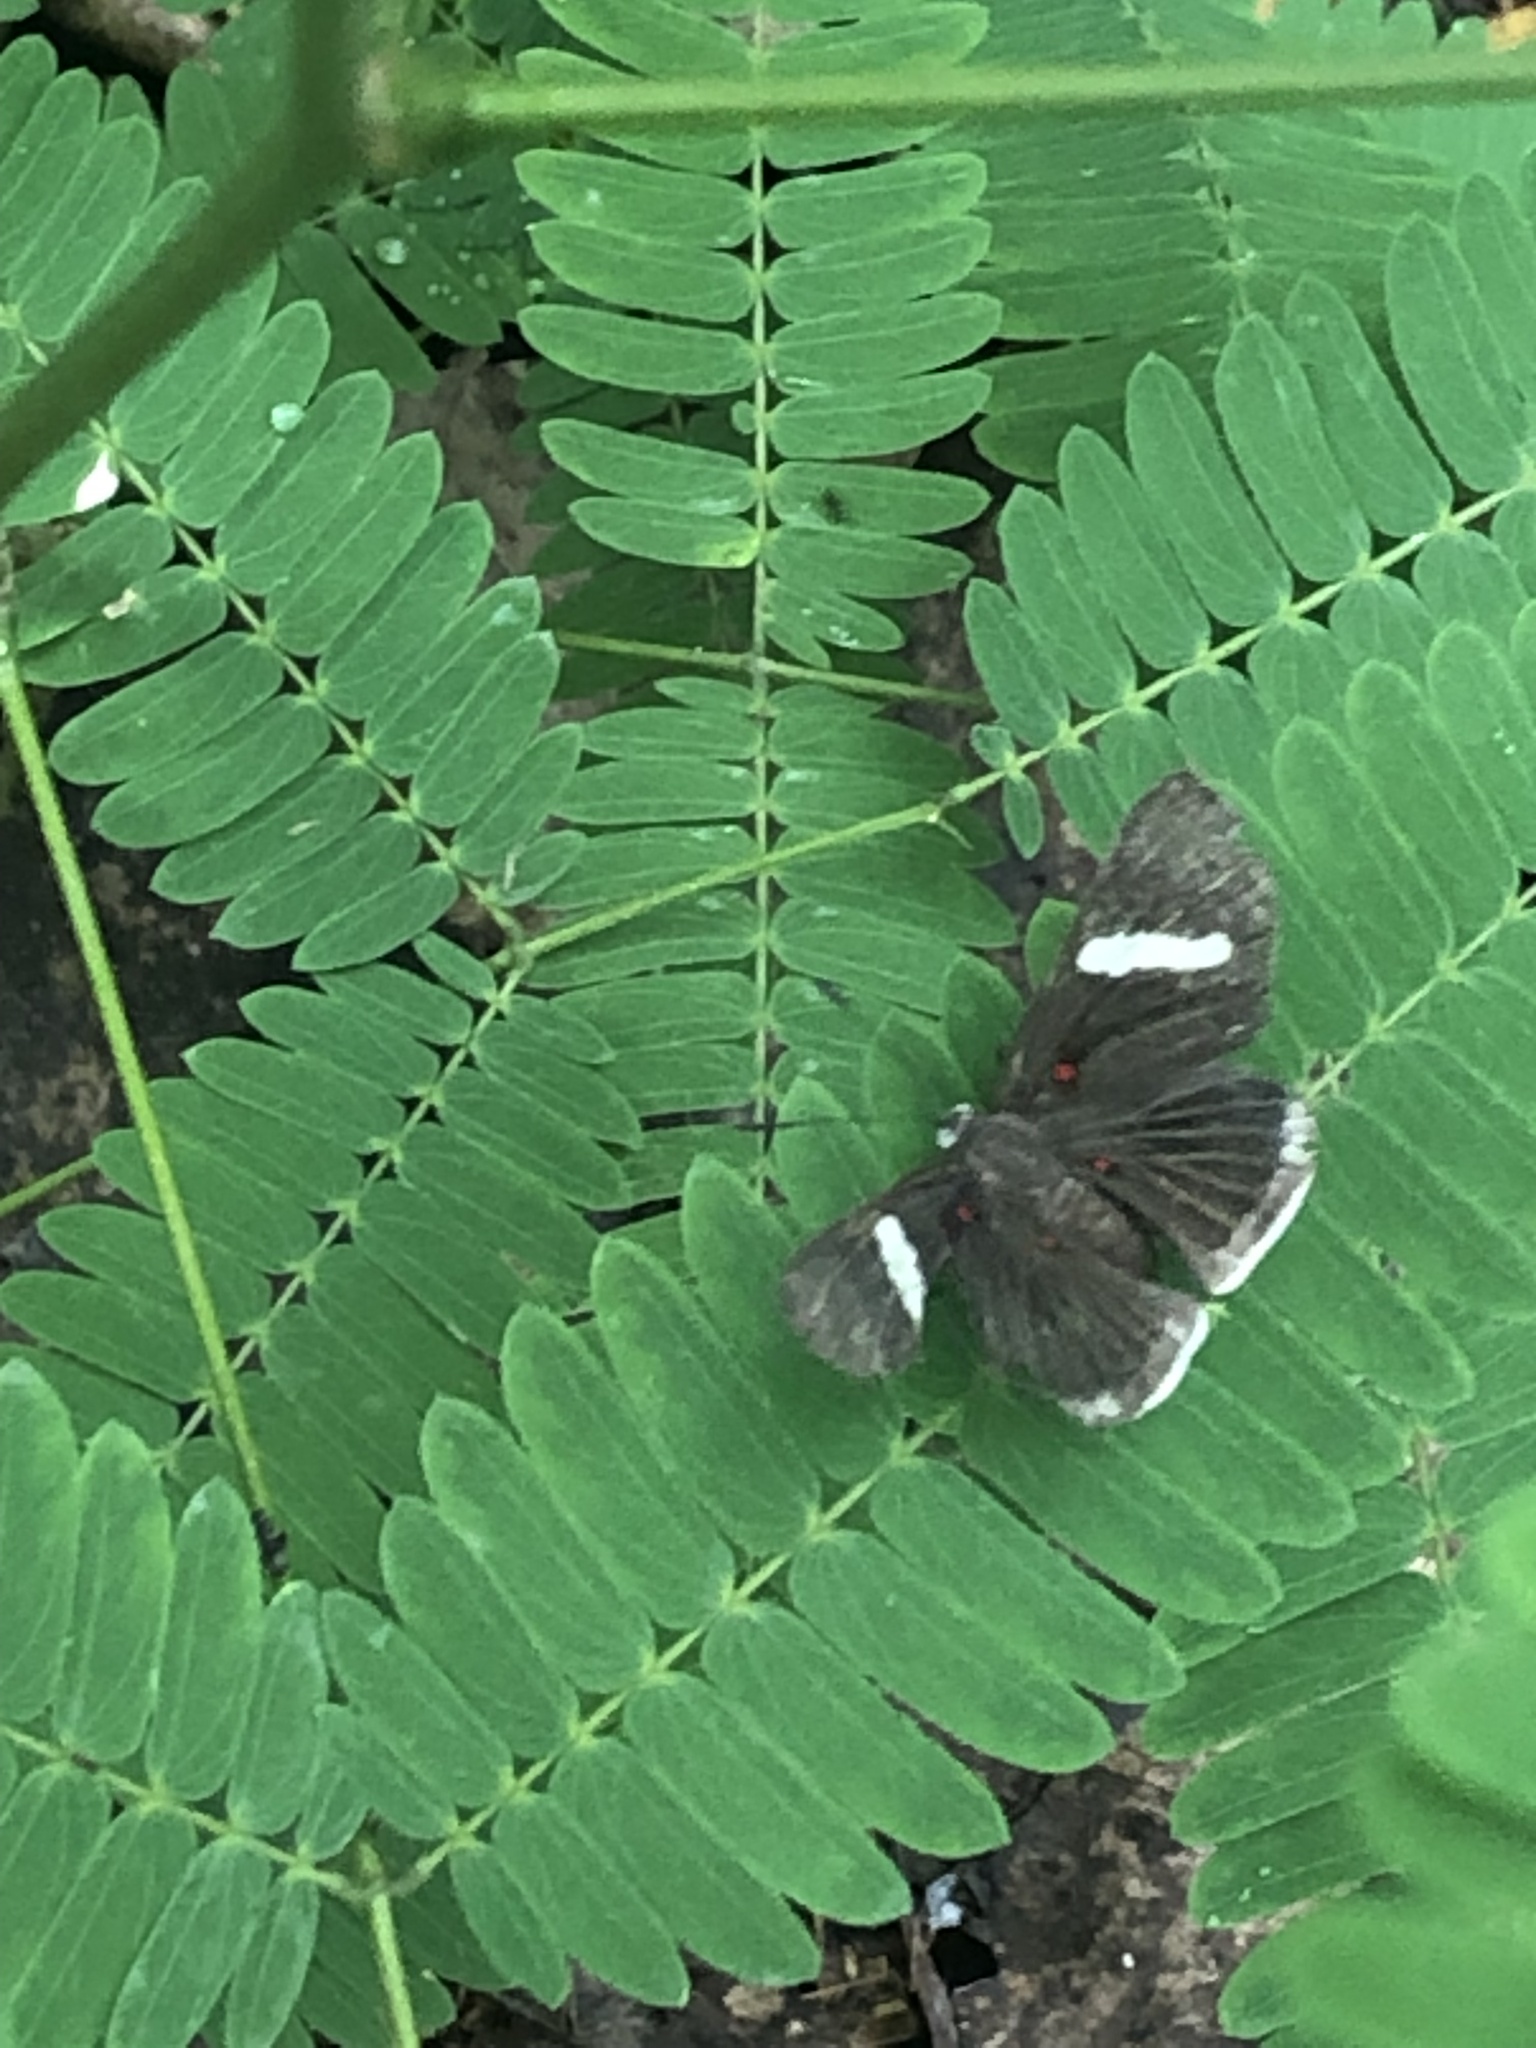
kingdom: Animalia
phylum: Arthropoda
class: Insecta
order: Lepidoptera
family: Lycaenidae
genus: Melanis
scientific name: Melanis
